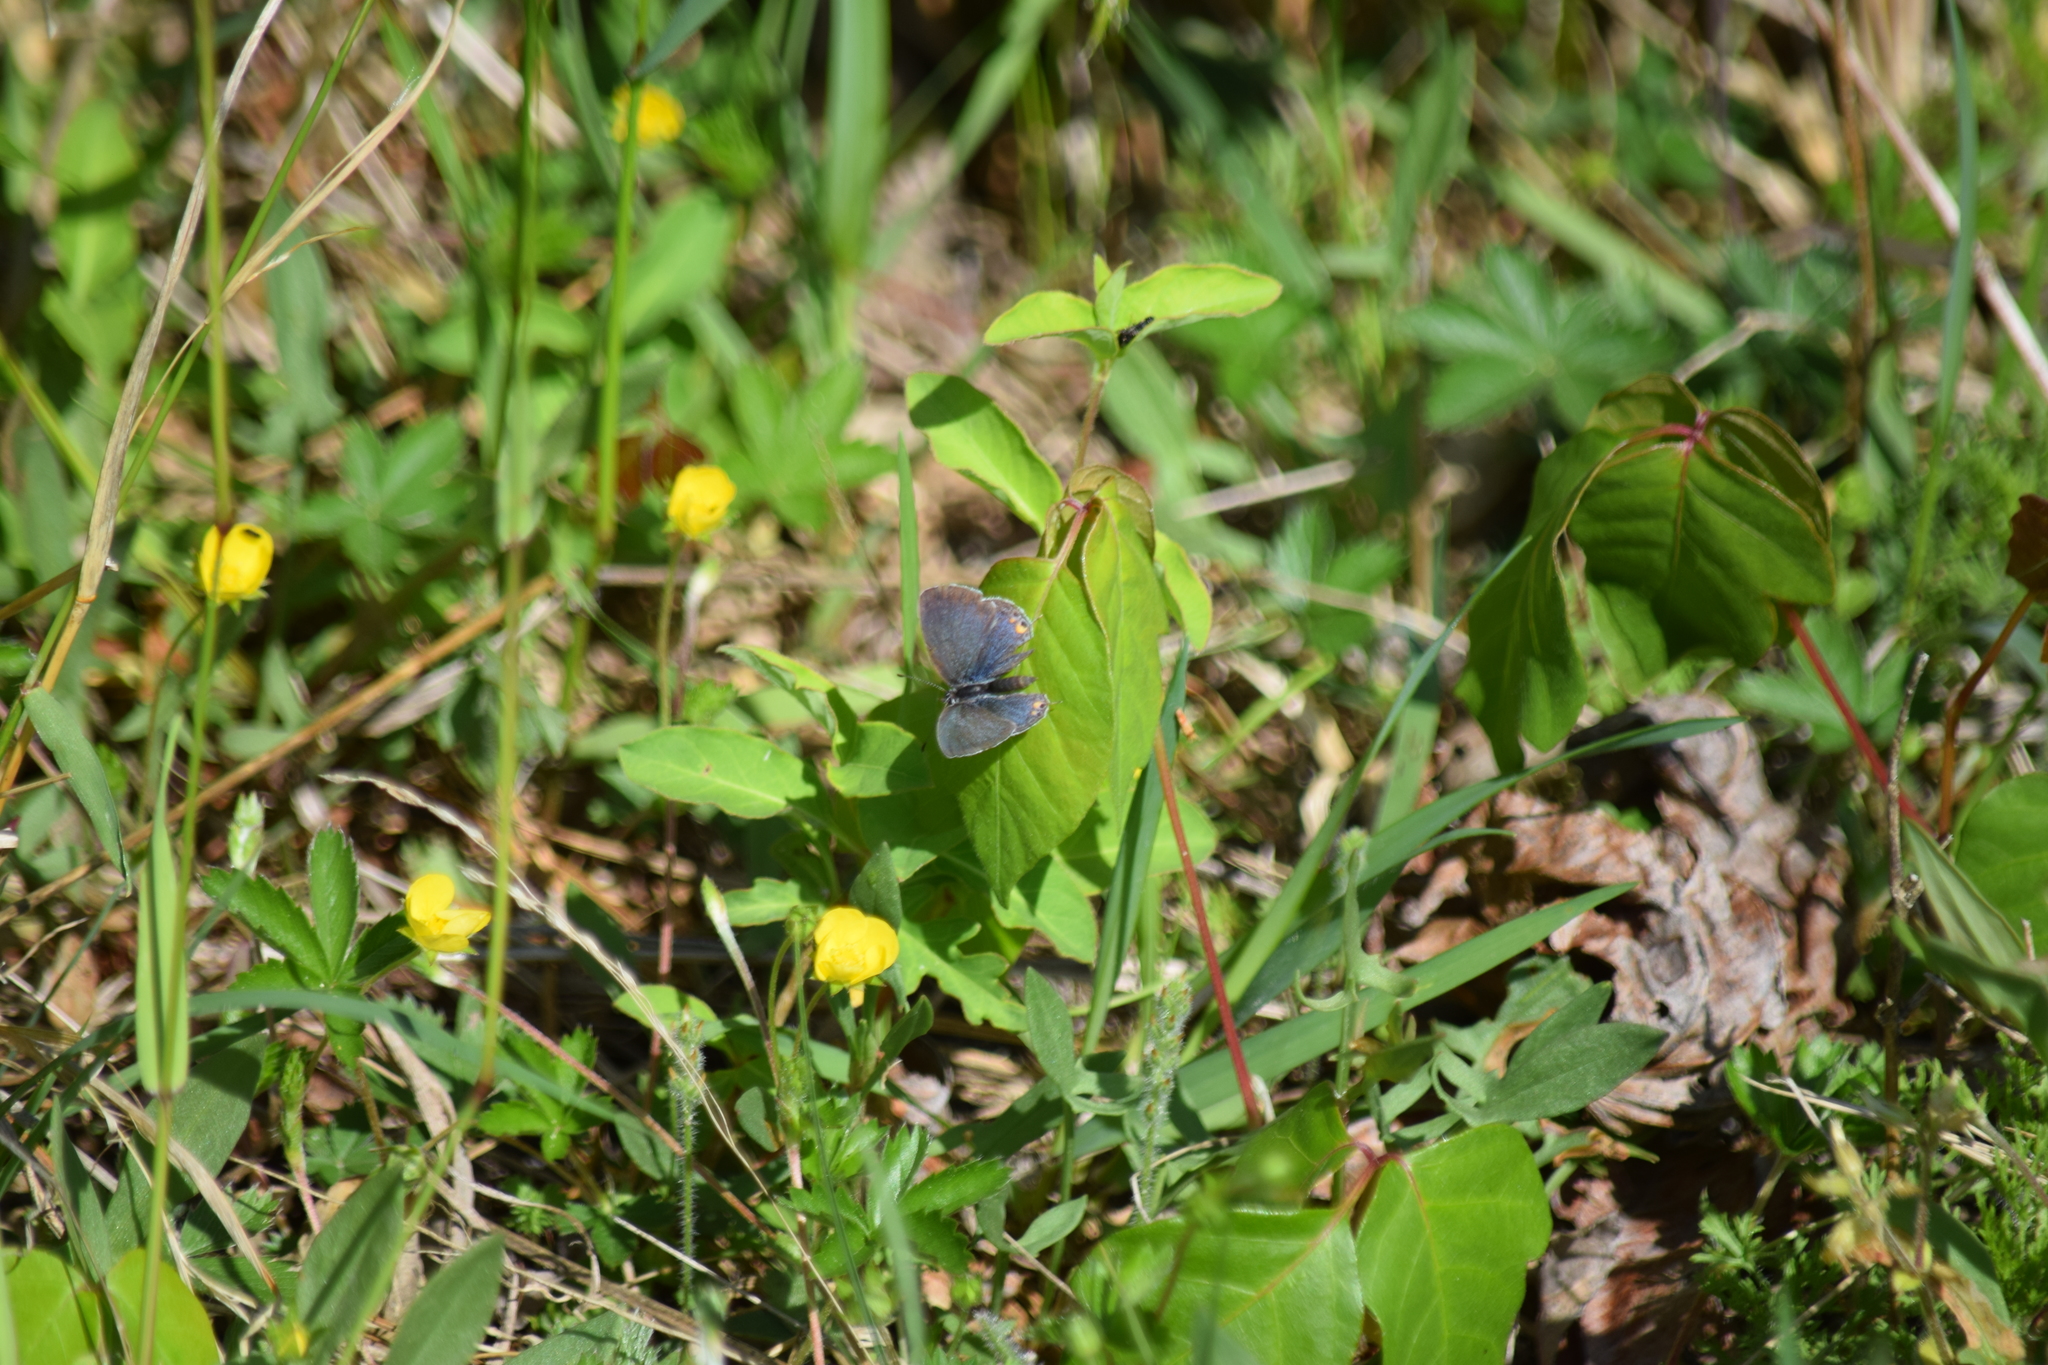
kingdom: Animalia
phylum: Arthropoda
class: Insecta
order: Lepidoptera
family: Lycaenidae
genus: Elkalyce
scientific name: Elkalyce comyntas
